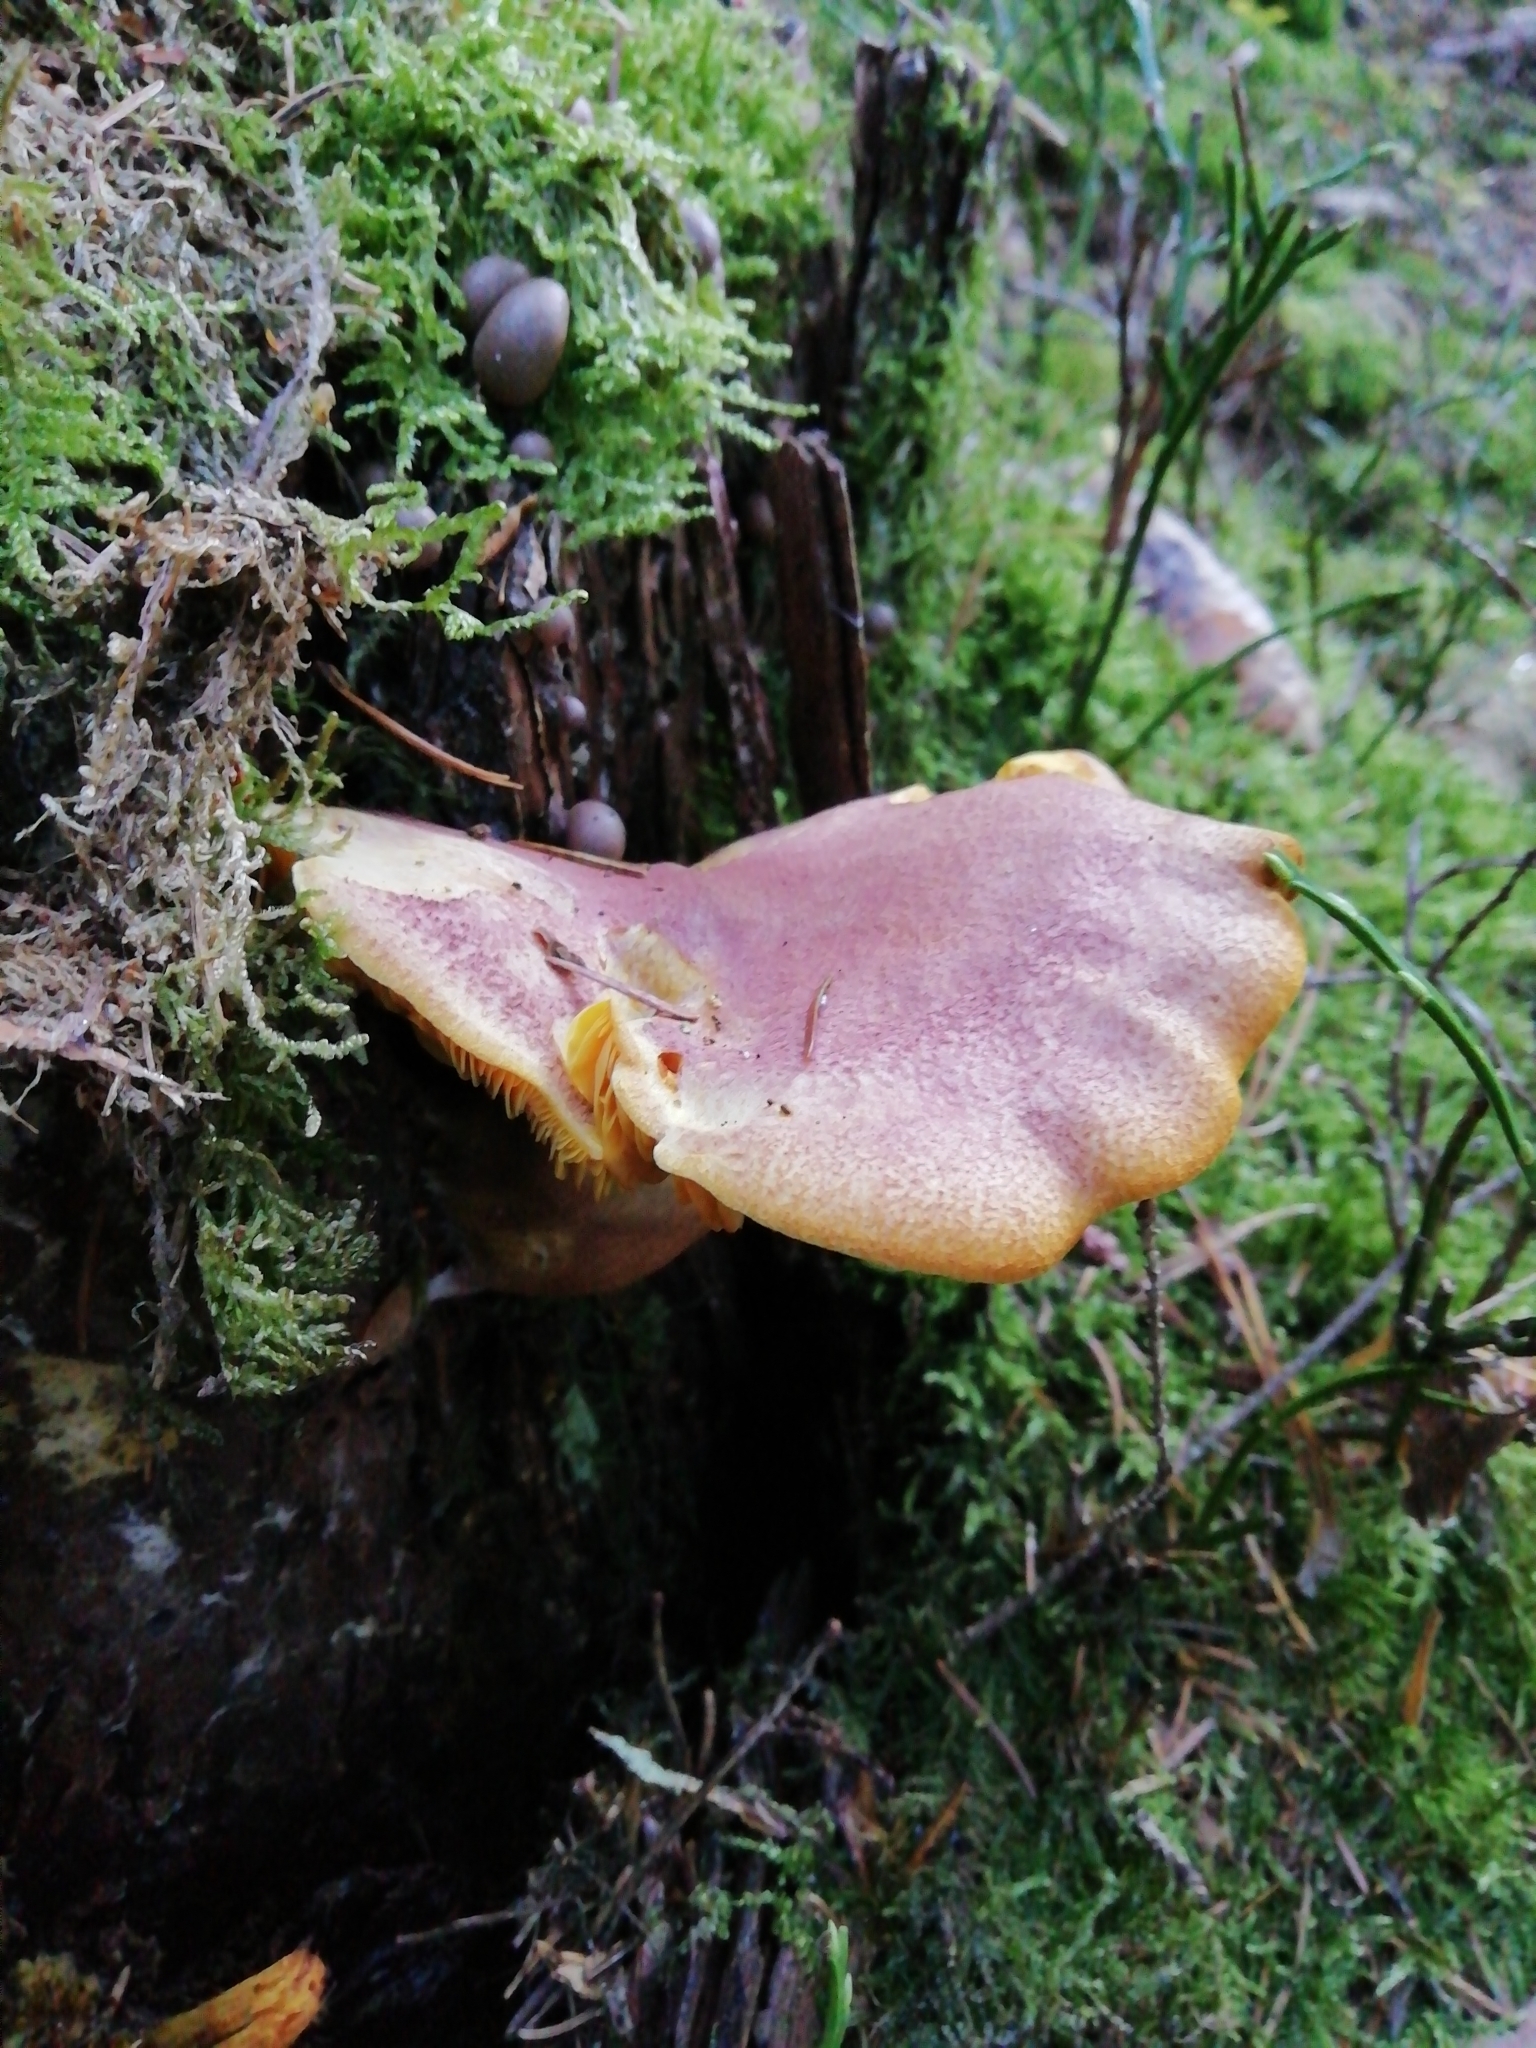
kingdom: Fungi
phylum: Basidiomycota
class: Agaricomycetes
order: Agaricales
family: Tricholomataceae
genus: Tricholomopsis
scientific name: Tricholomopsis rutilans
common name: Plums and custard
